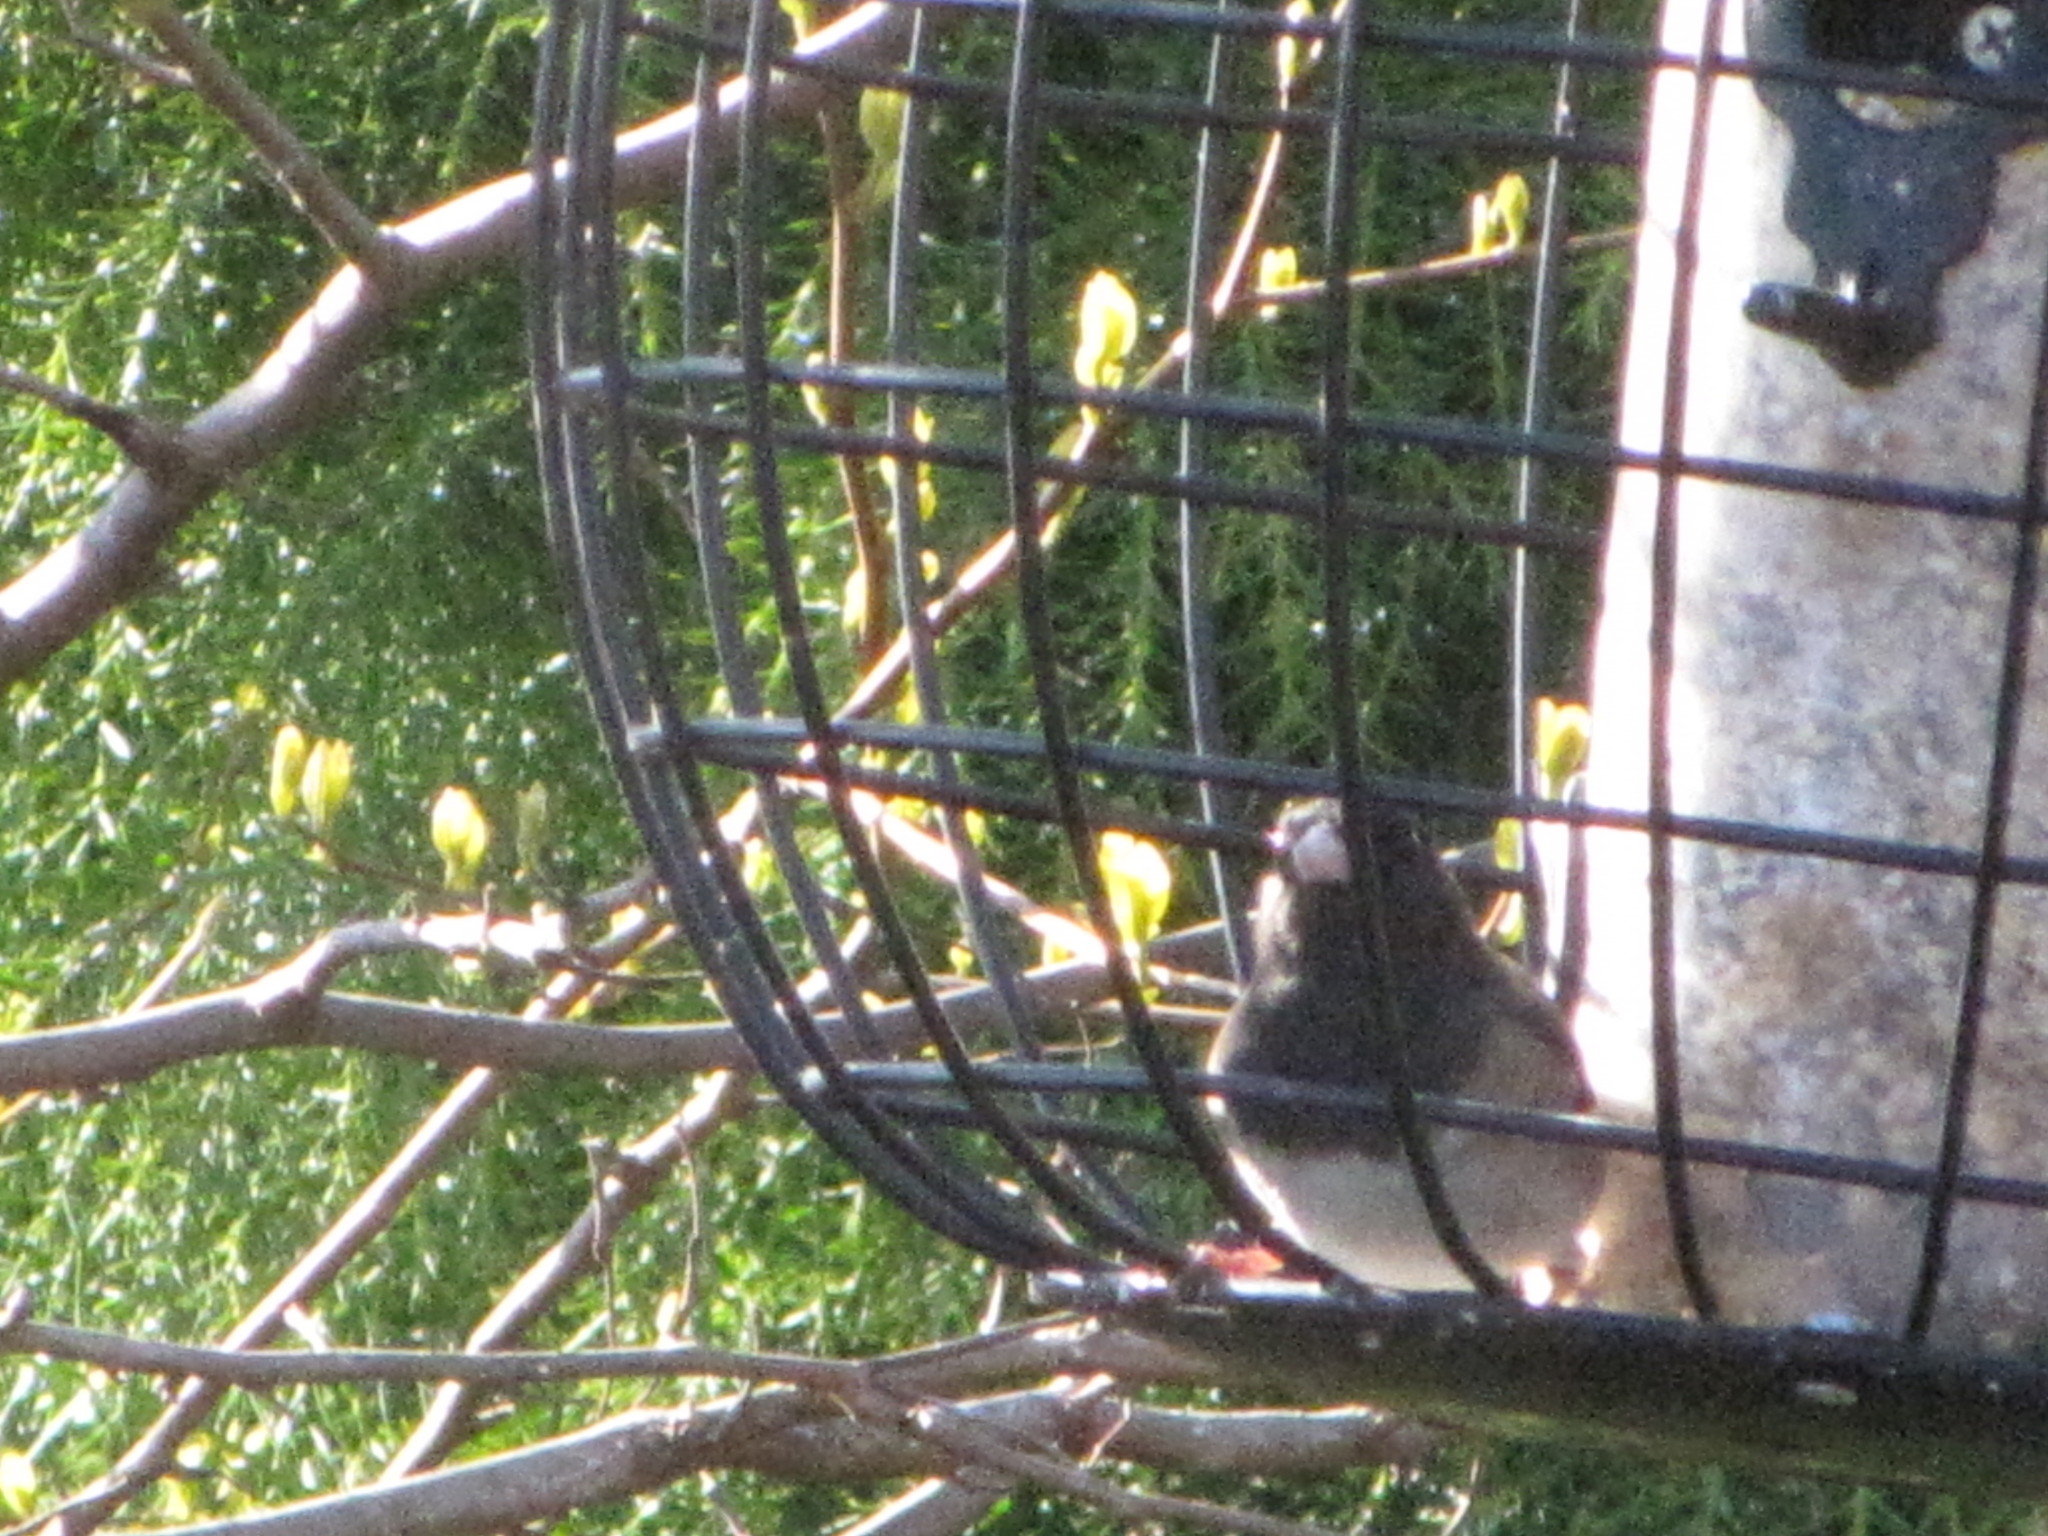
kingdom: Animalia
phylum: Chordata
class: Aves
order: Passeriformes
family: Passerellidae
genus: Junco
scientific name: Junco hyemalis
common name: Dark-eyed junco
